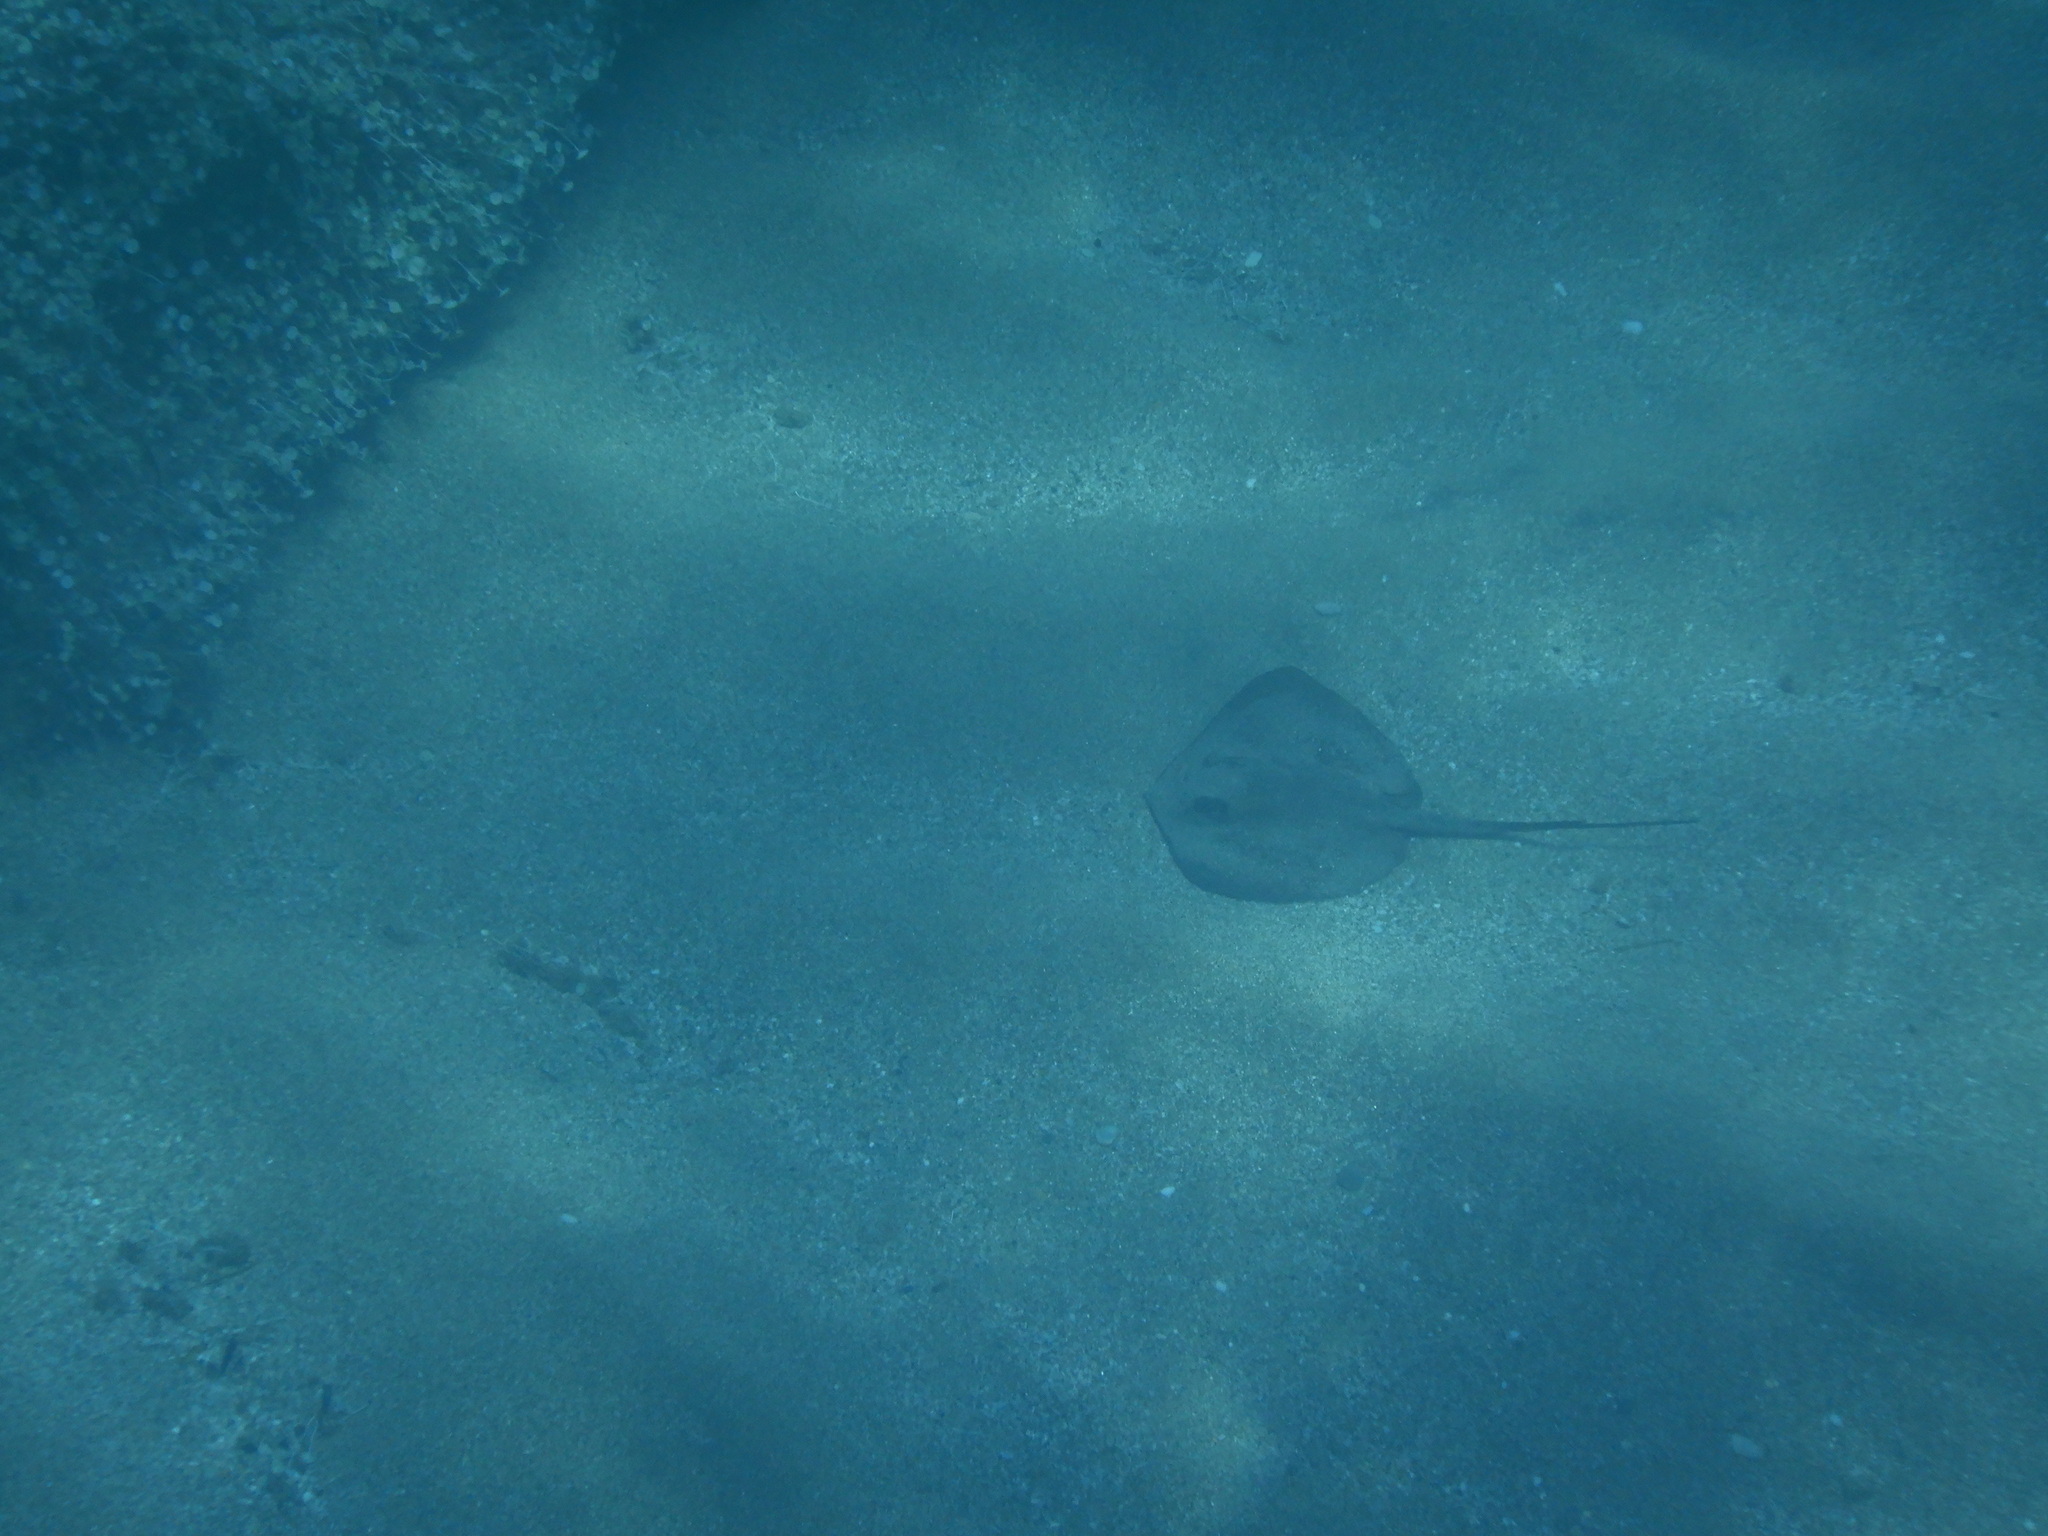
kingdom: Animalia
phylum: Chordata
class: Elasmobranchii
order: Myliobatiformes
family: Dasyatidae
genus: Dasyatis
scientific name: Dasyatis pastinaca
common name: Common stingray
